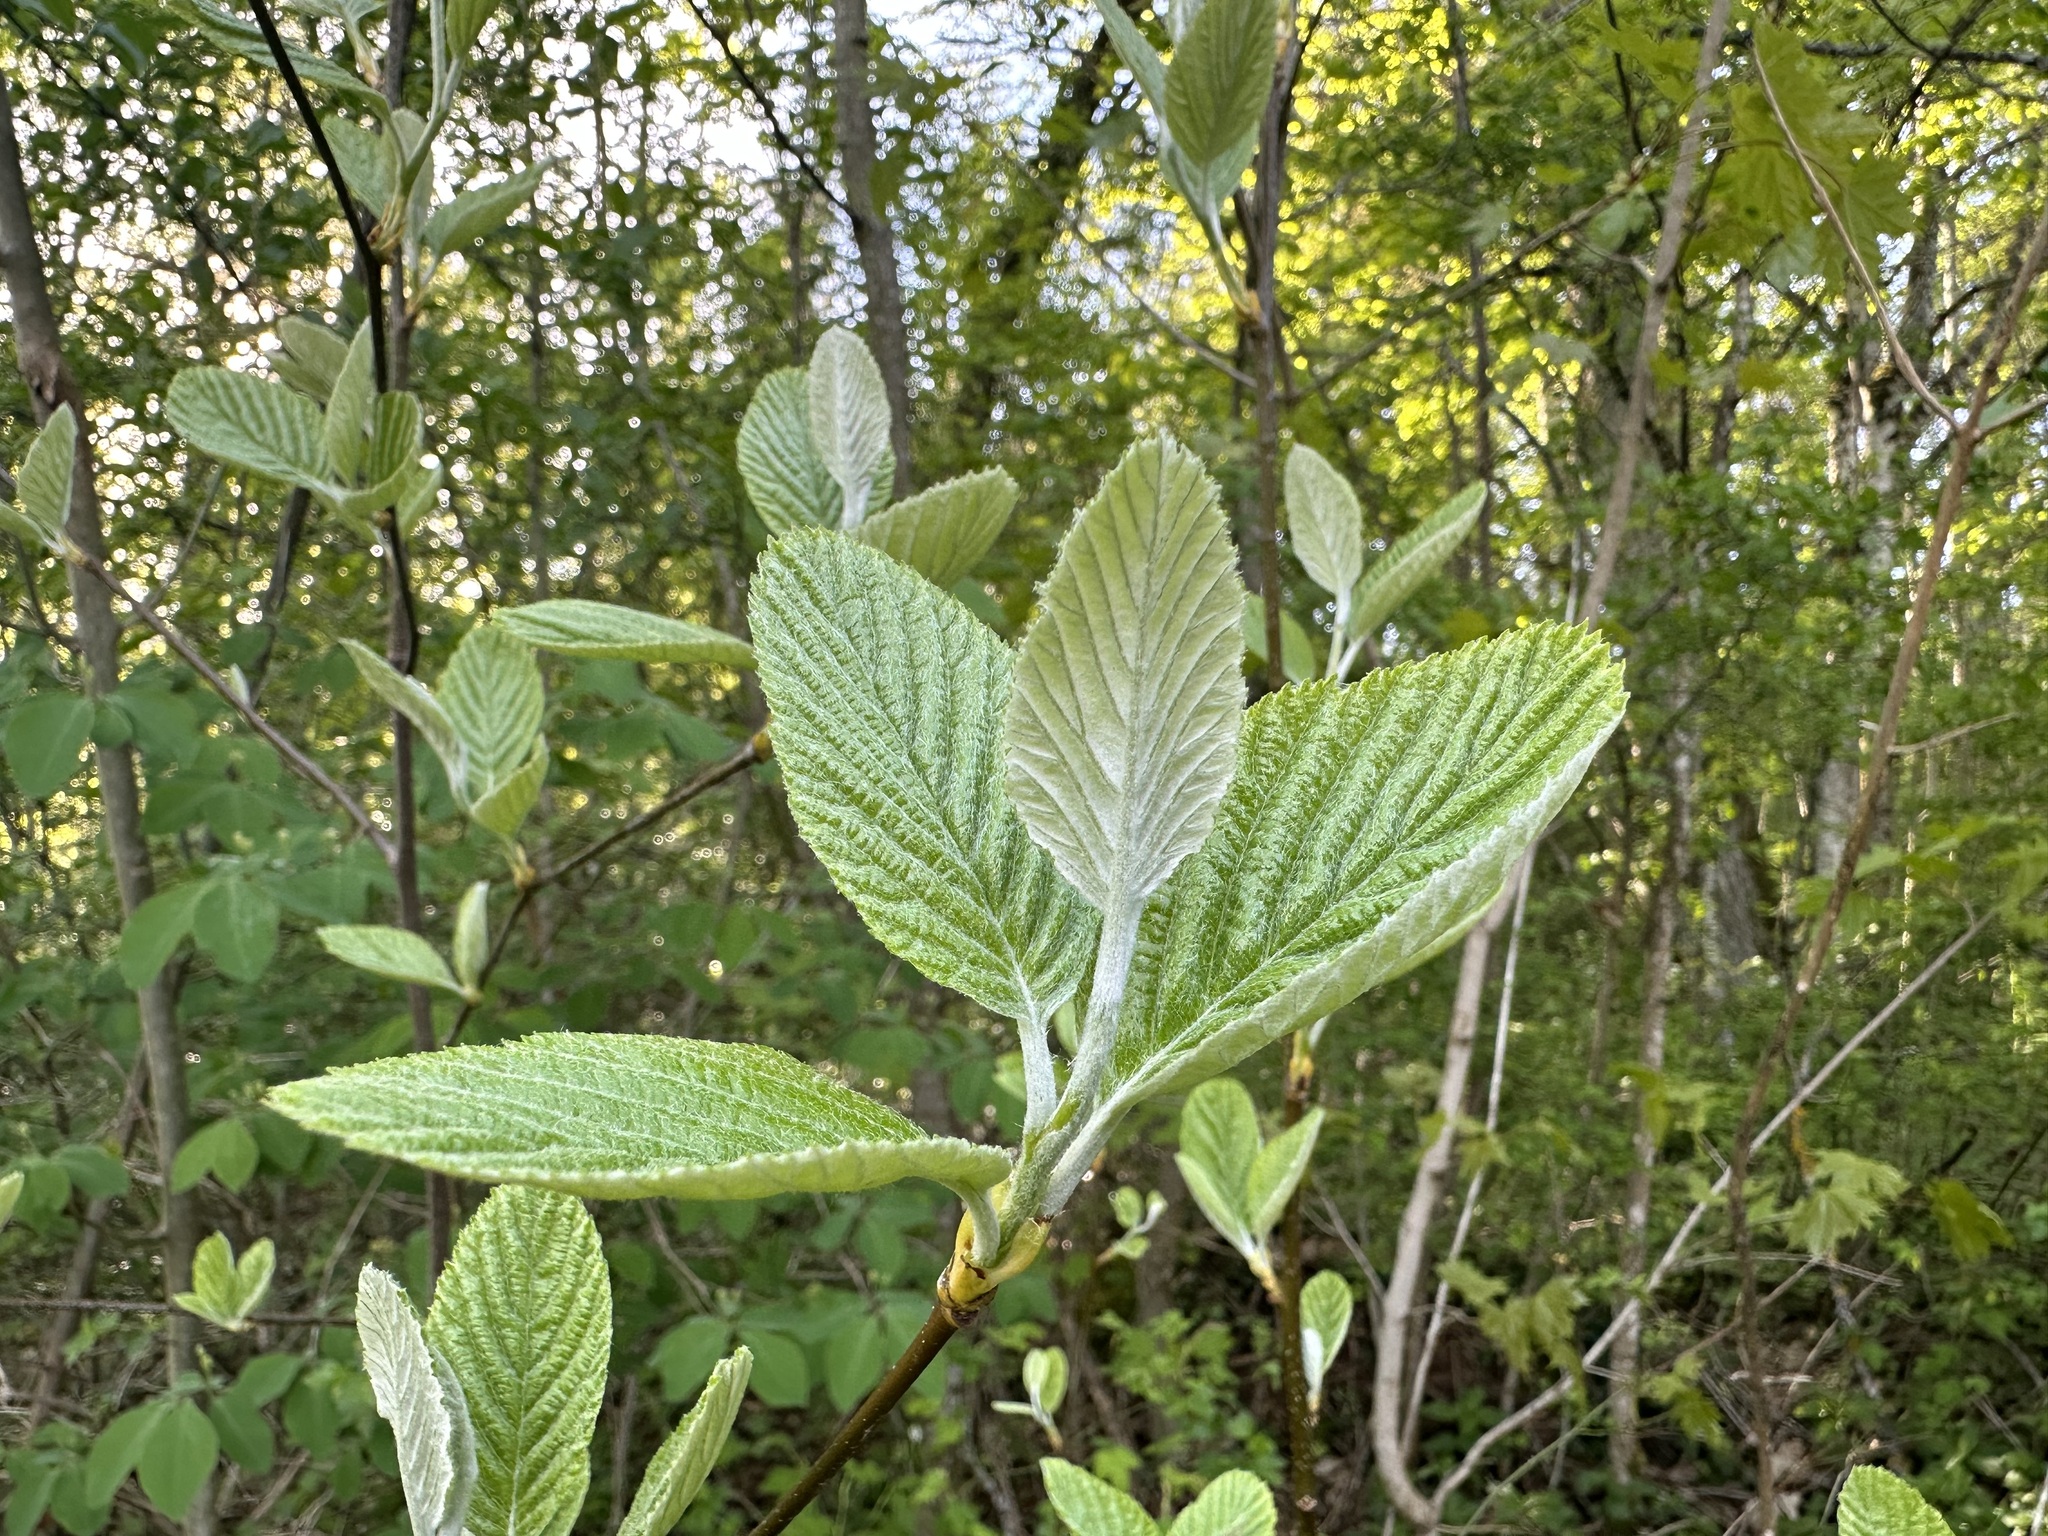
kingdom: Plantae
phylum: Tracheophyta
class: Magnoliopsida
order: Rosales
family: Rosaceae
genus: Aria
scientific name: Aria edulis
